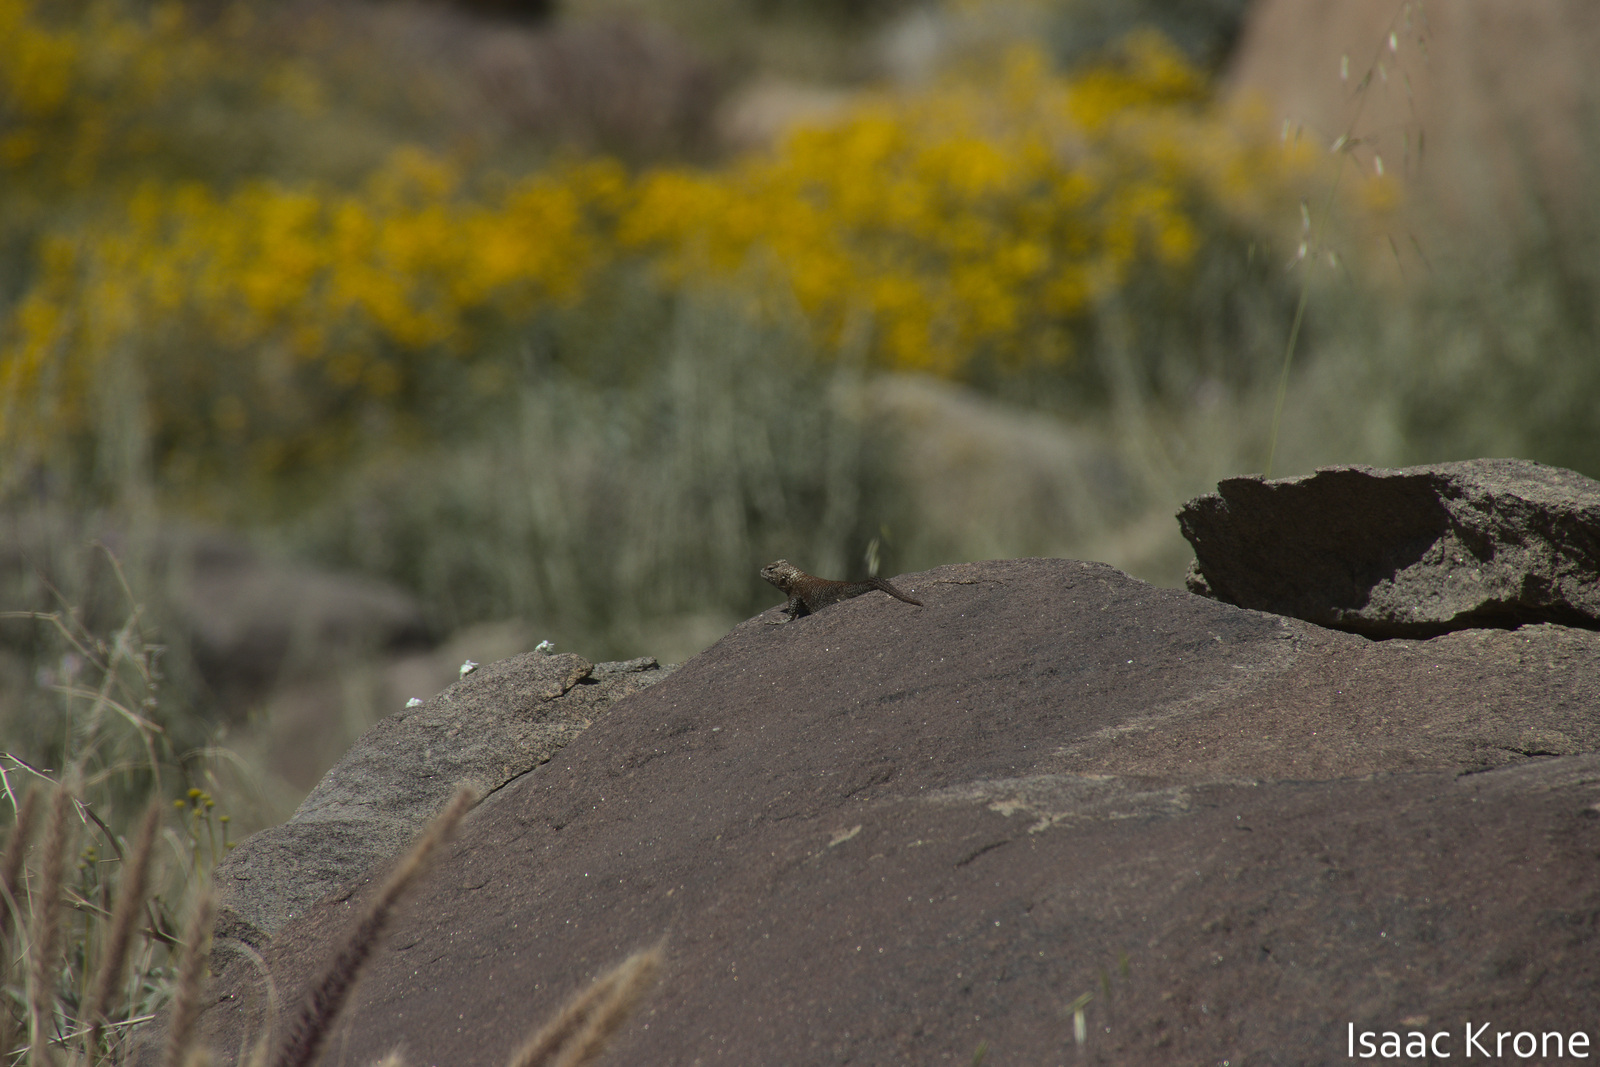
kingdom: Animalia
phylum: Chordata
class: Squamata
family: Phrynosomatidae
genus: Sceloporus
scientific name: Sceloporus orcutti
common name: Granite spiny lizard
